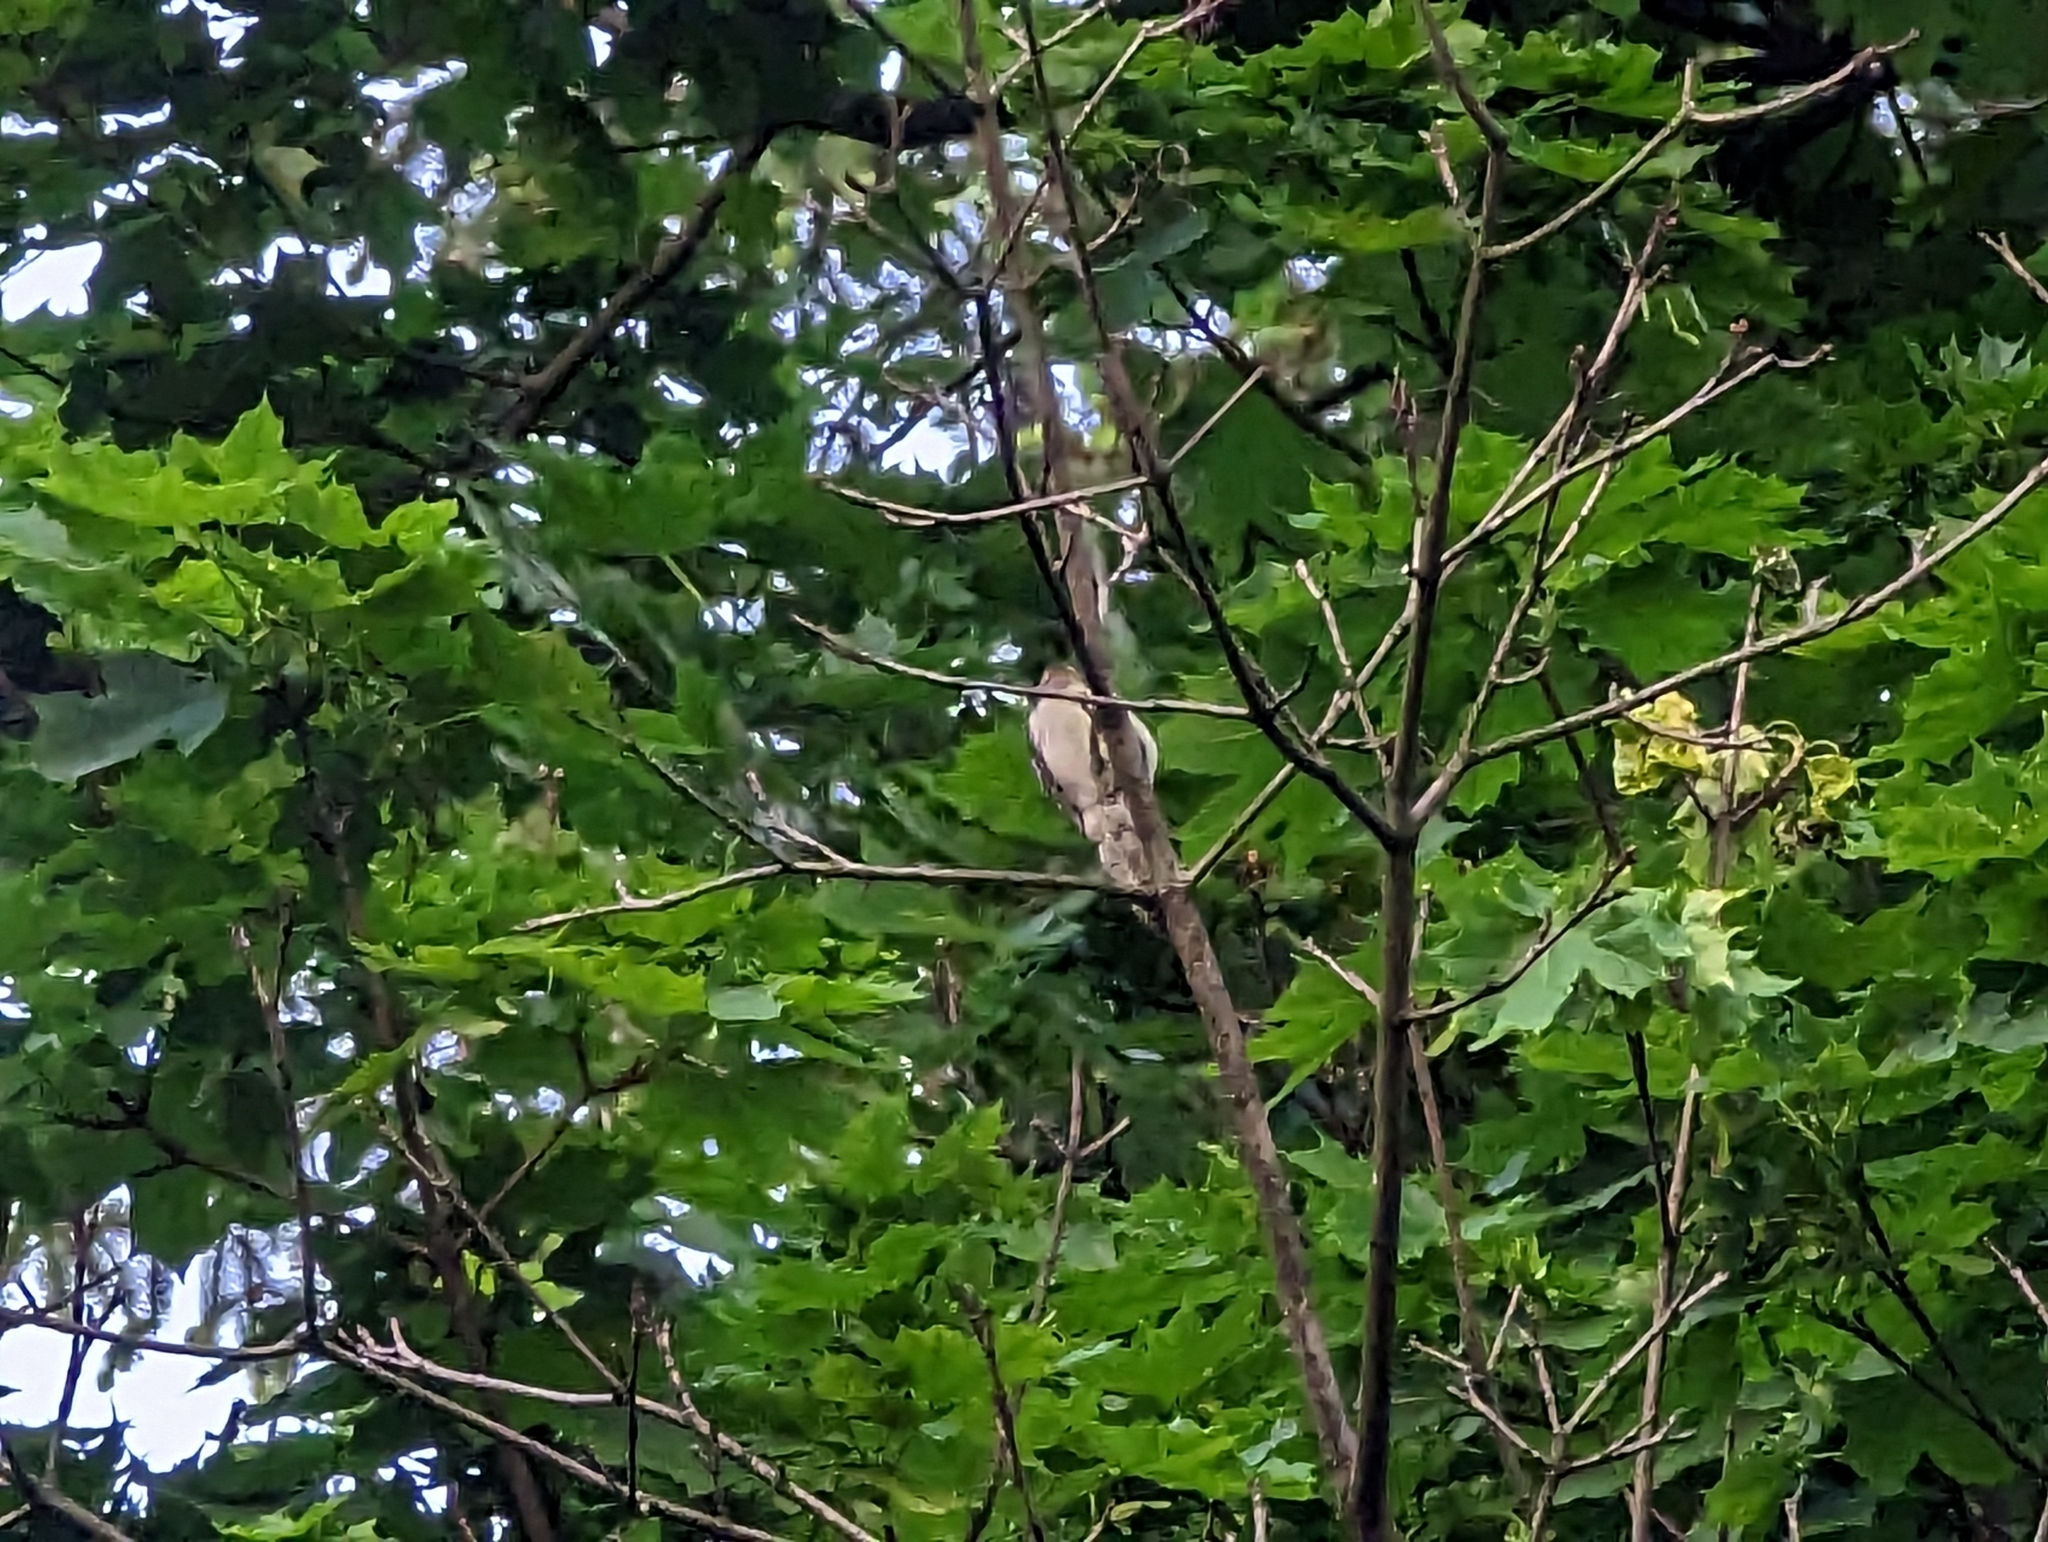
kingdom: Animalia
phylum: Chordata
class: Aves
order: Piciformes
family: Picidae
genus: Dryobates
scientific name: Dryobates pubescens
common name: Downy woodpecker
